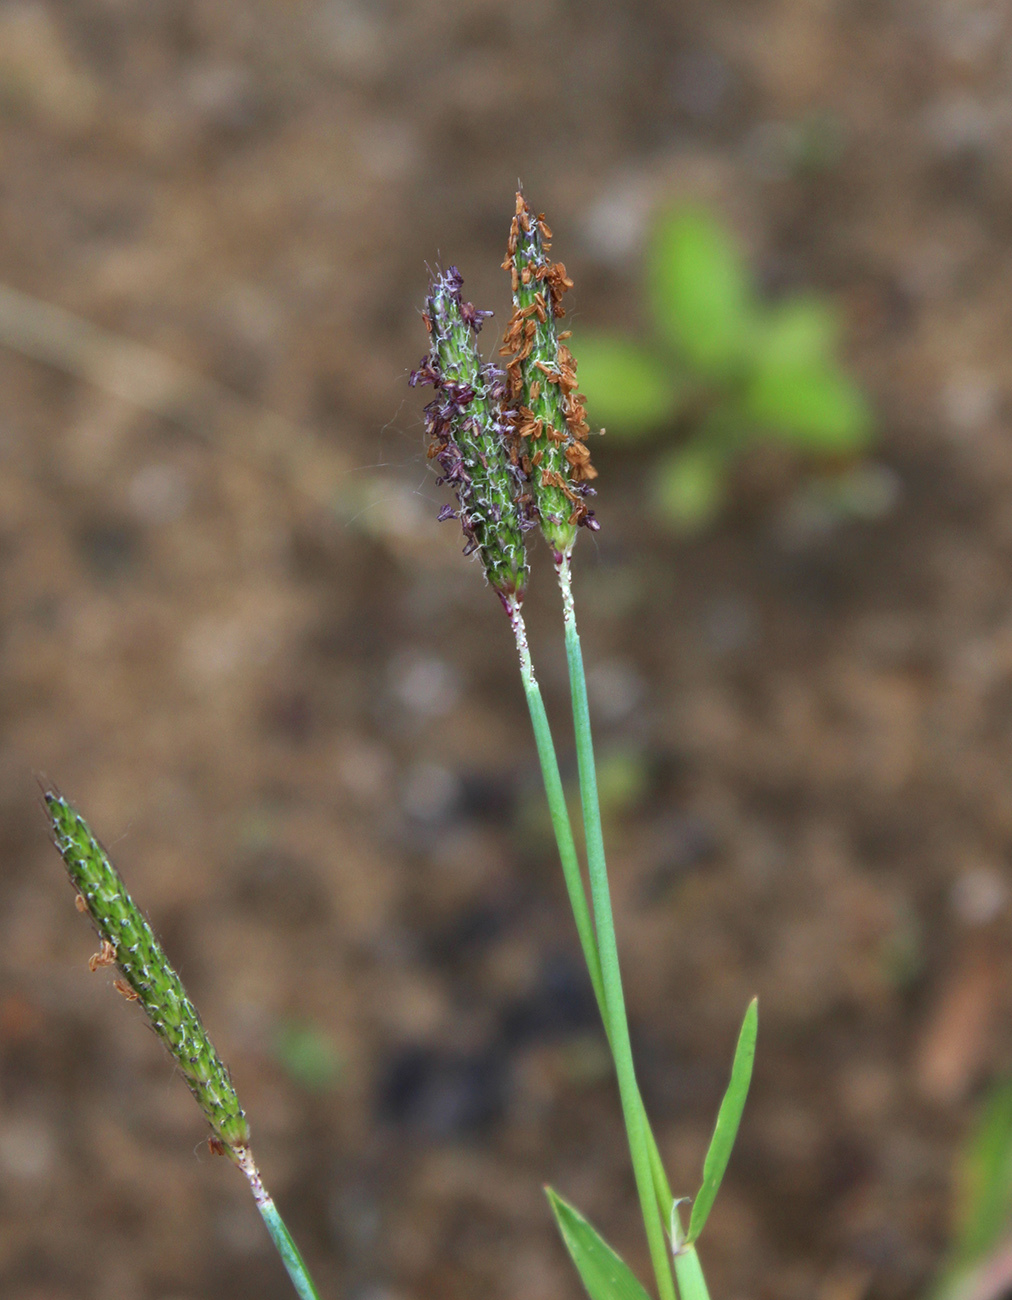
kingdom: Plantae
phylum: Tracheophyta
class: Liliopsida
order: Poales
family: Poaceae
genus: Alopecurus
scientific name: Alopecurus geniculatus
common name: Water foxtail
